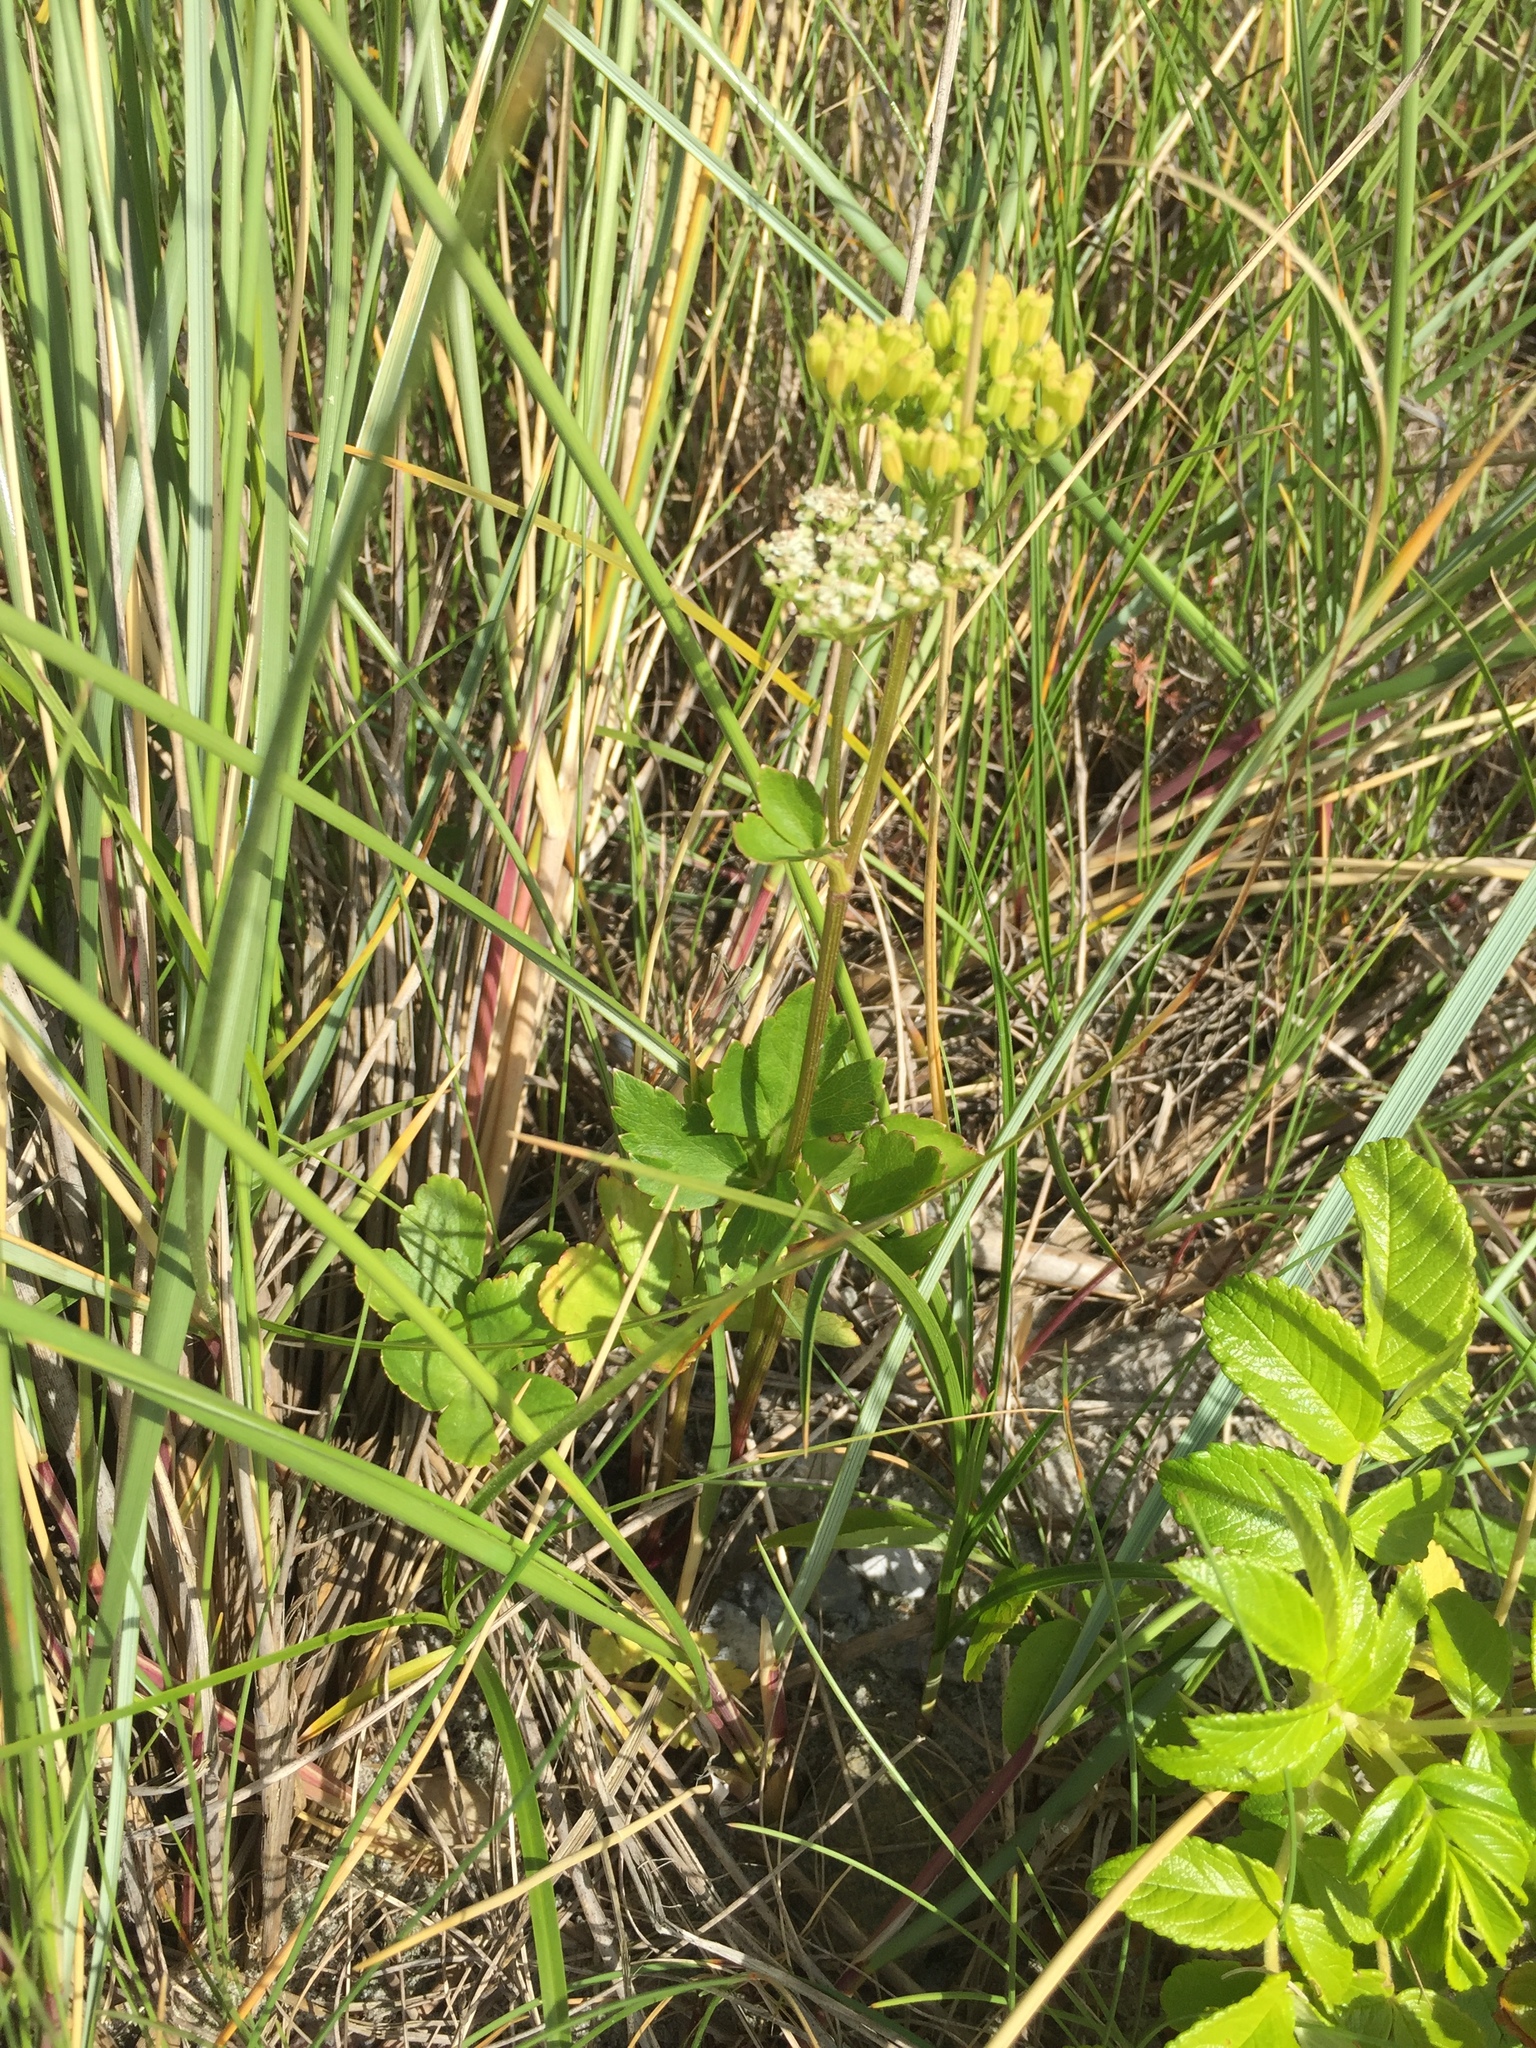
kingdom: Plantae
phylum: Tracheophyta
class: Magnoliopsida
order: Apiales
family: Apiaceae
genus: Ligusticum
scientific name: Ligusticum scothicum
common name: Beach lovage
